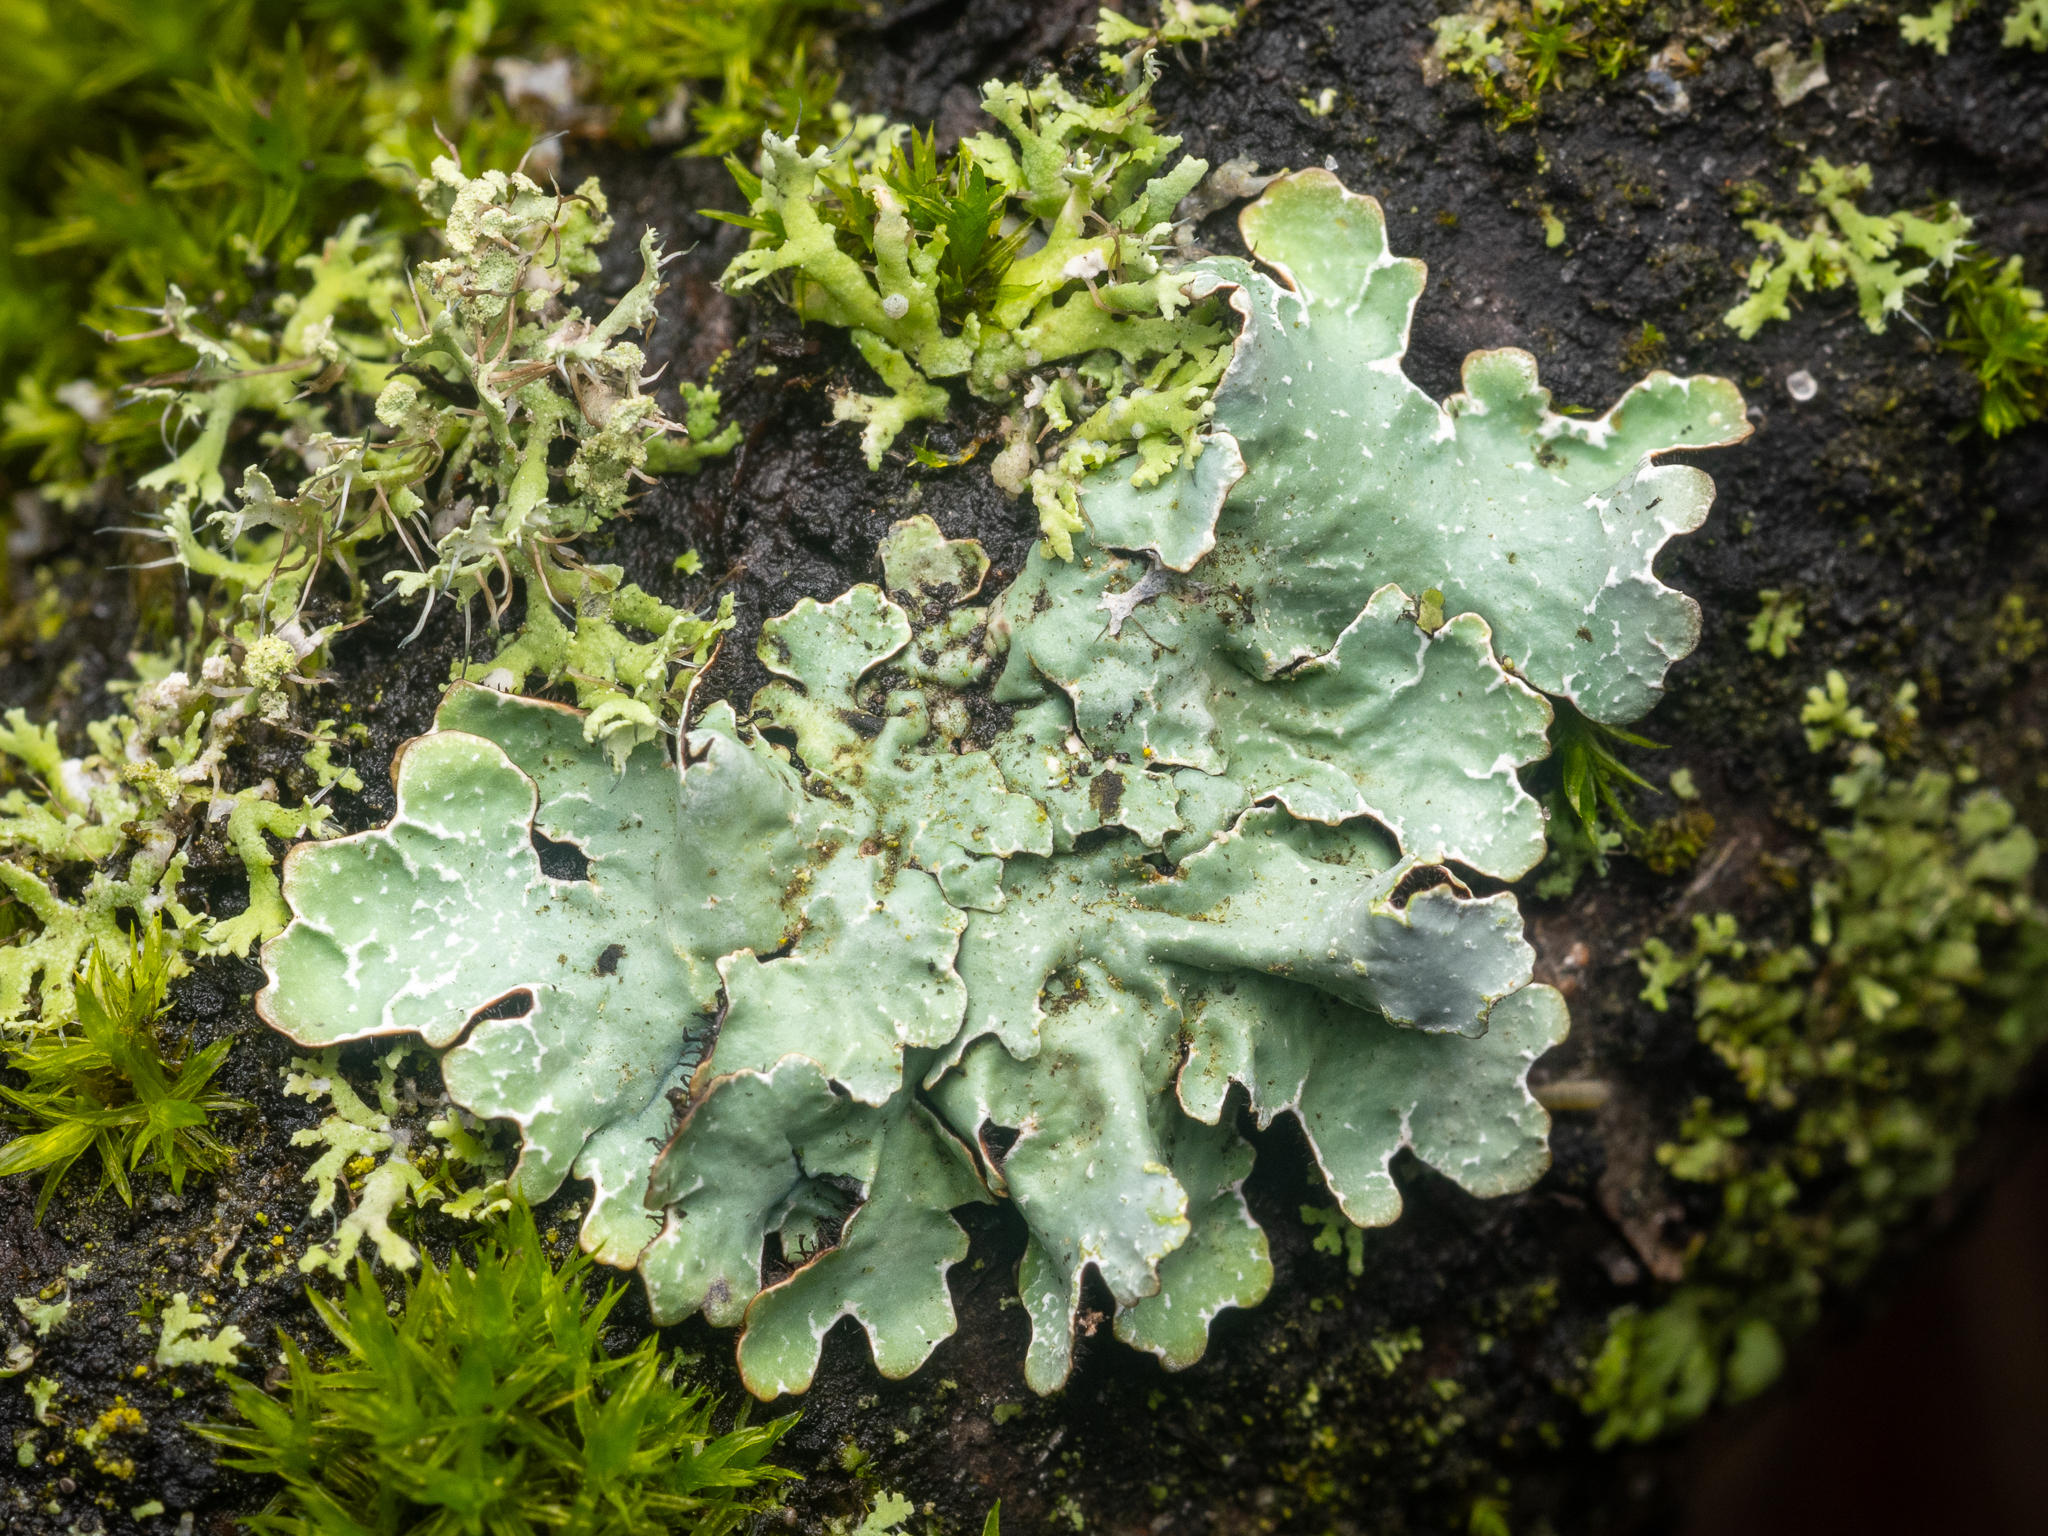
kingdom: Fungi
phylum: Ascomycota
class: Lecanoromycetes
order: Lecanorales
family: Parmeliaceae
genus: Parmelia
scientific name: Parmelia sulcata
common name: Netted shield lichen
